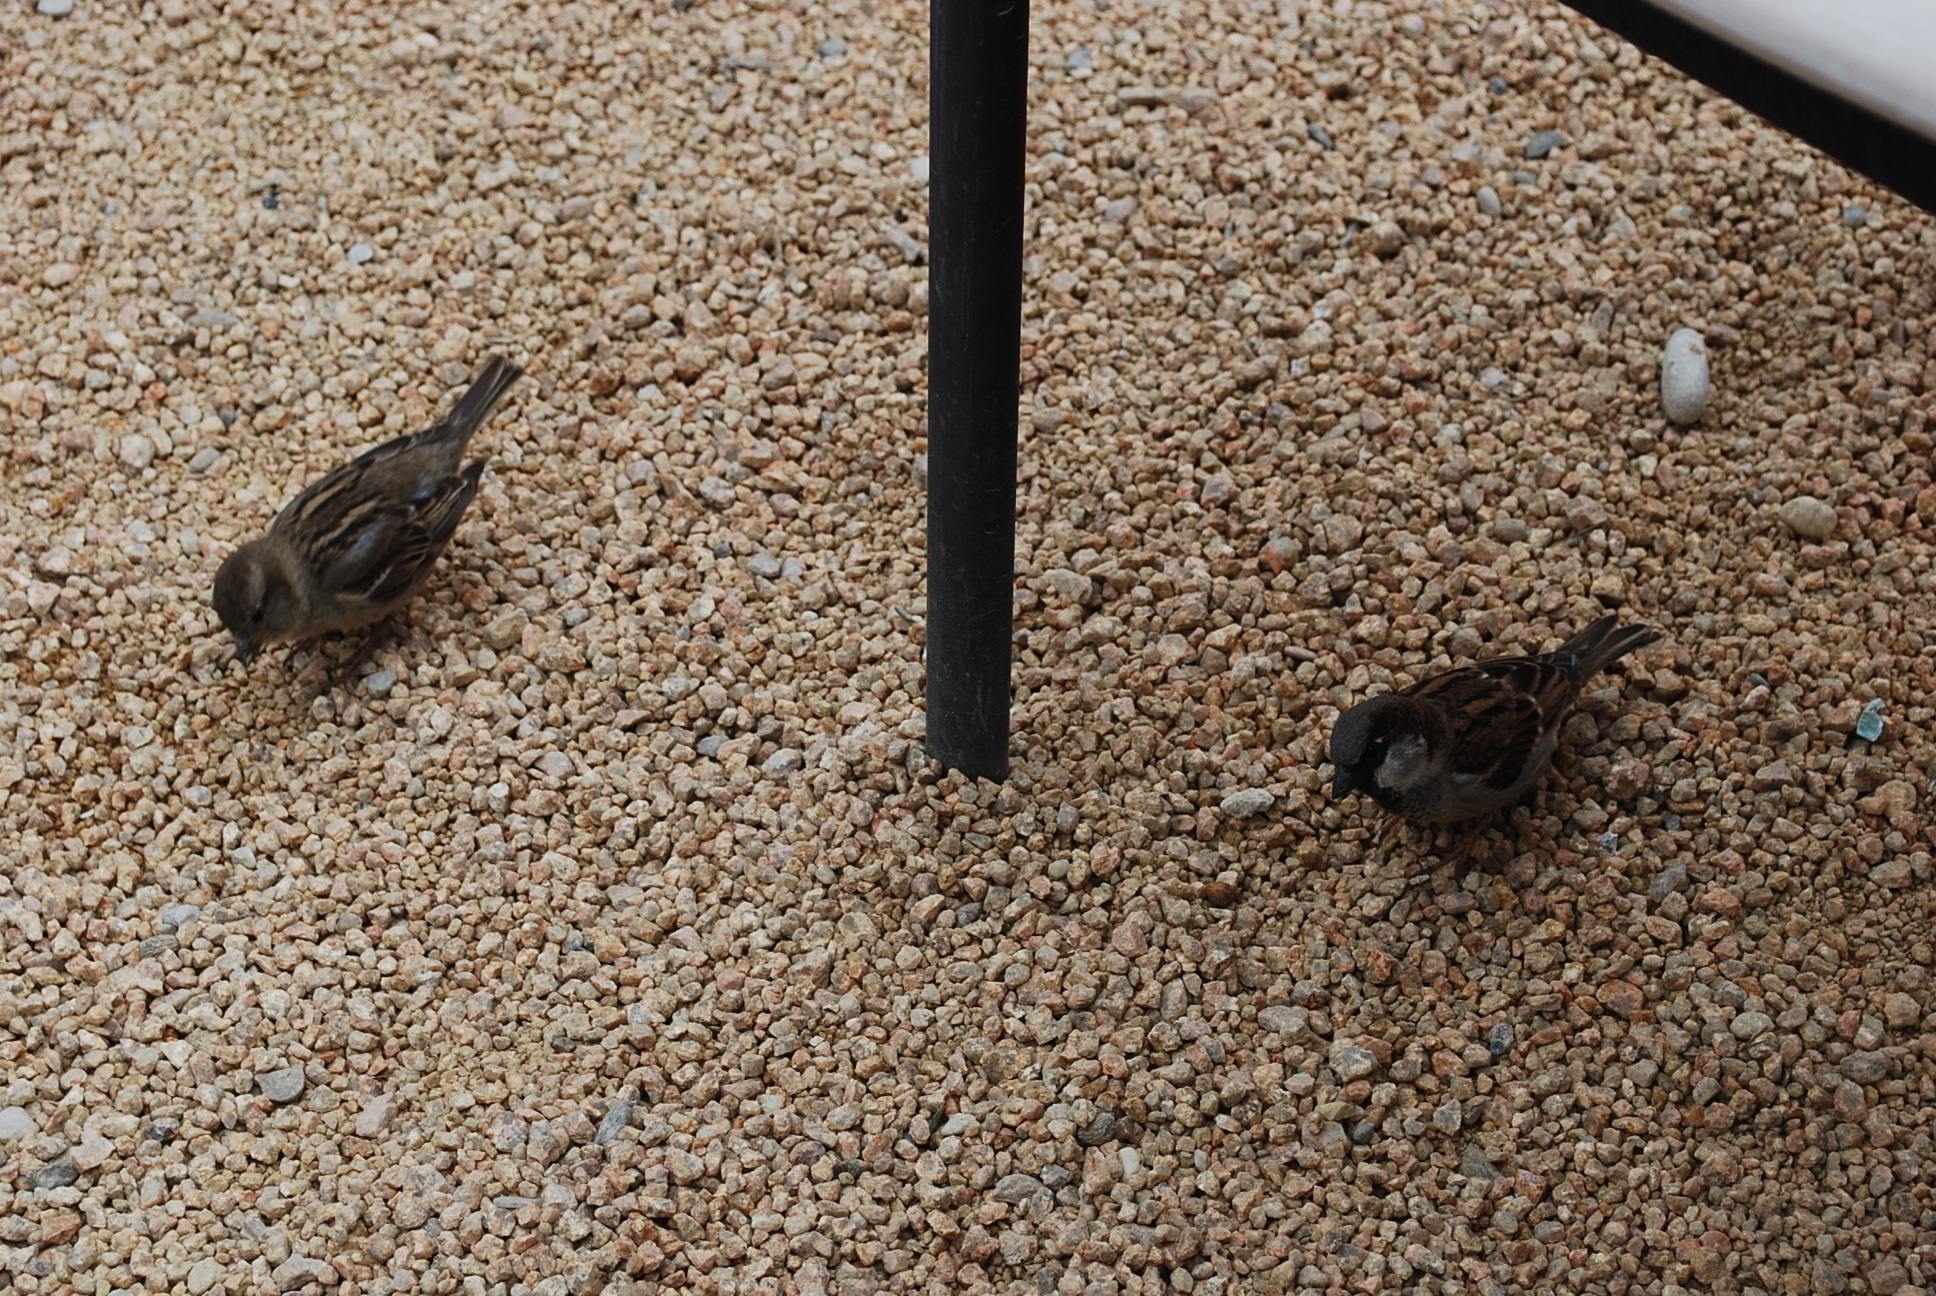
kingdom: Animalia
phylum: Chordata
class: Aves
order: Passeriformes
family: Passeridae
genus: Passer
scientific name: Passer domesticus
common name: House sparrow
